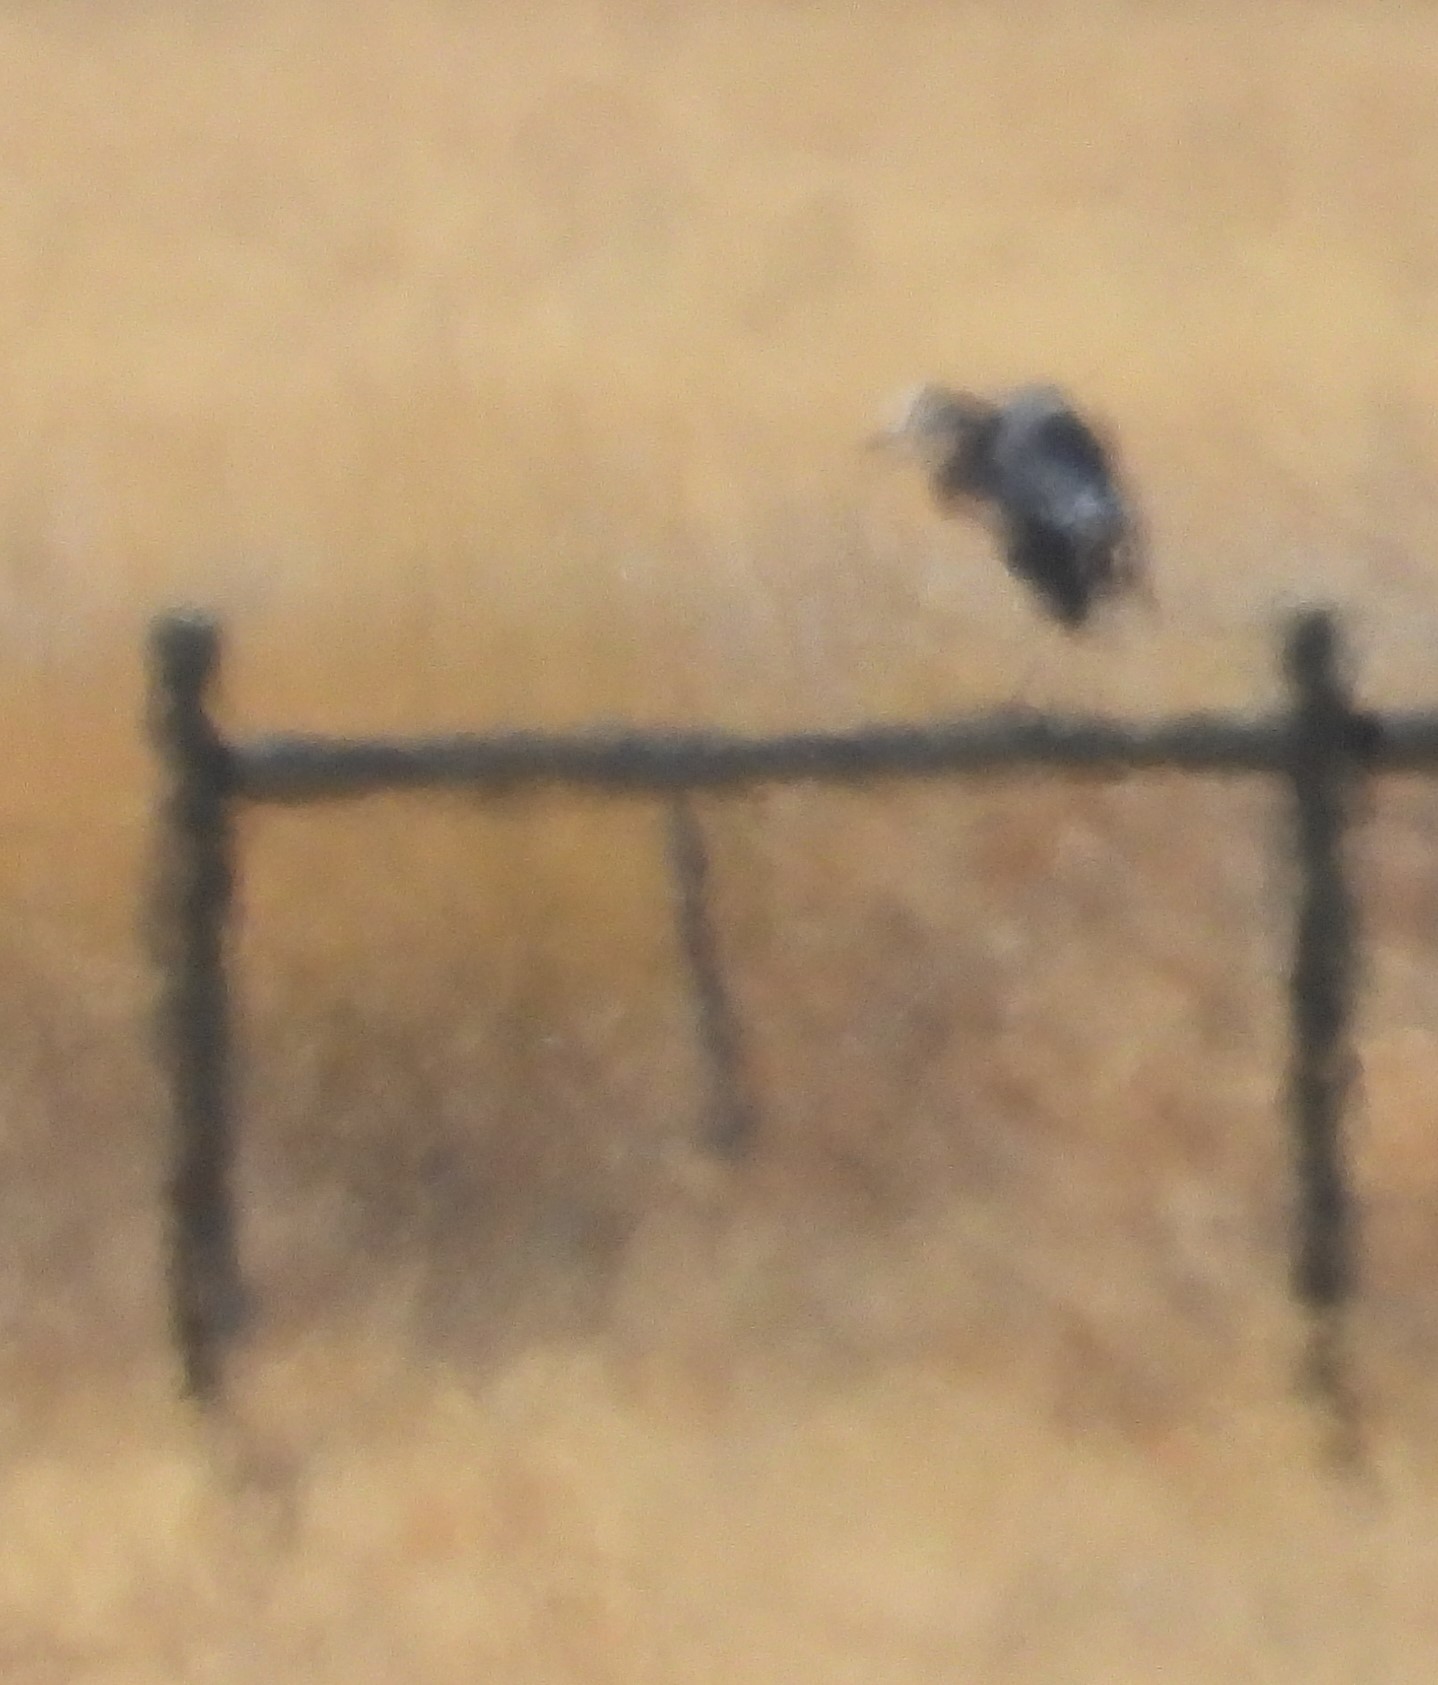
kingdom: Animalia
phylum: Chordata
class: Aves
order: Pelecaniformes
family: Ardeidae
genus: Ardea
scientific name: Ardea herodias
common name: Great blue heron
